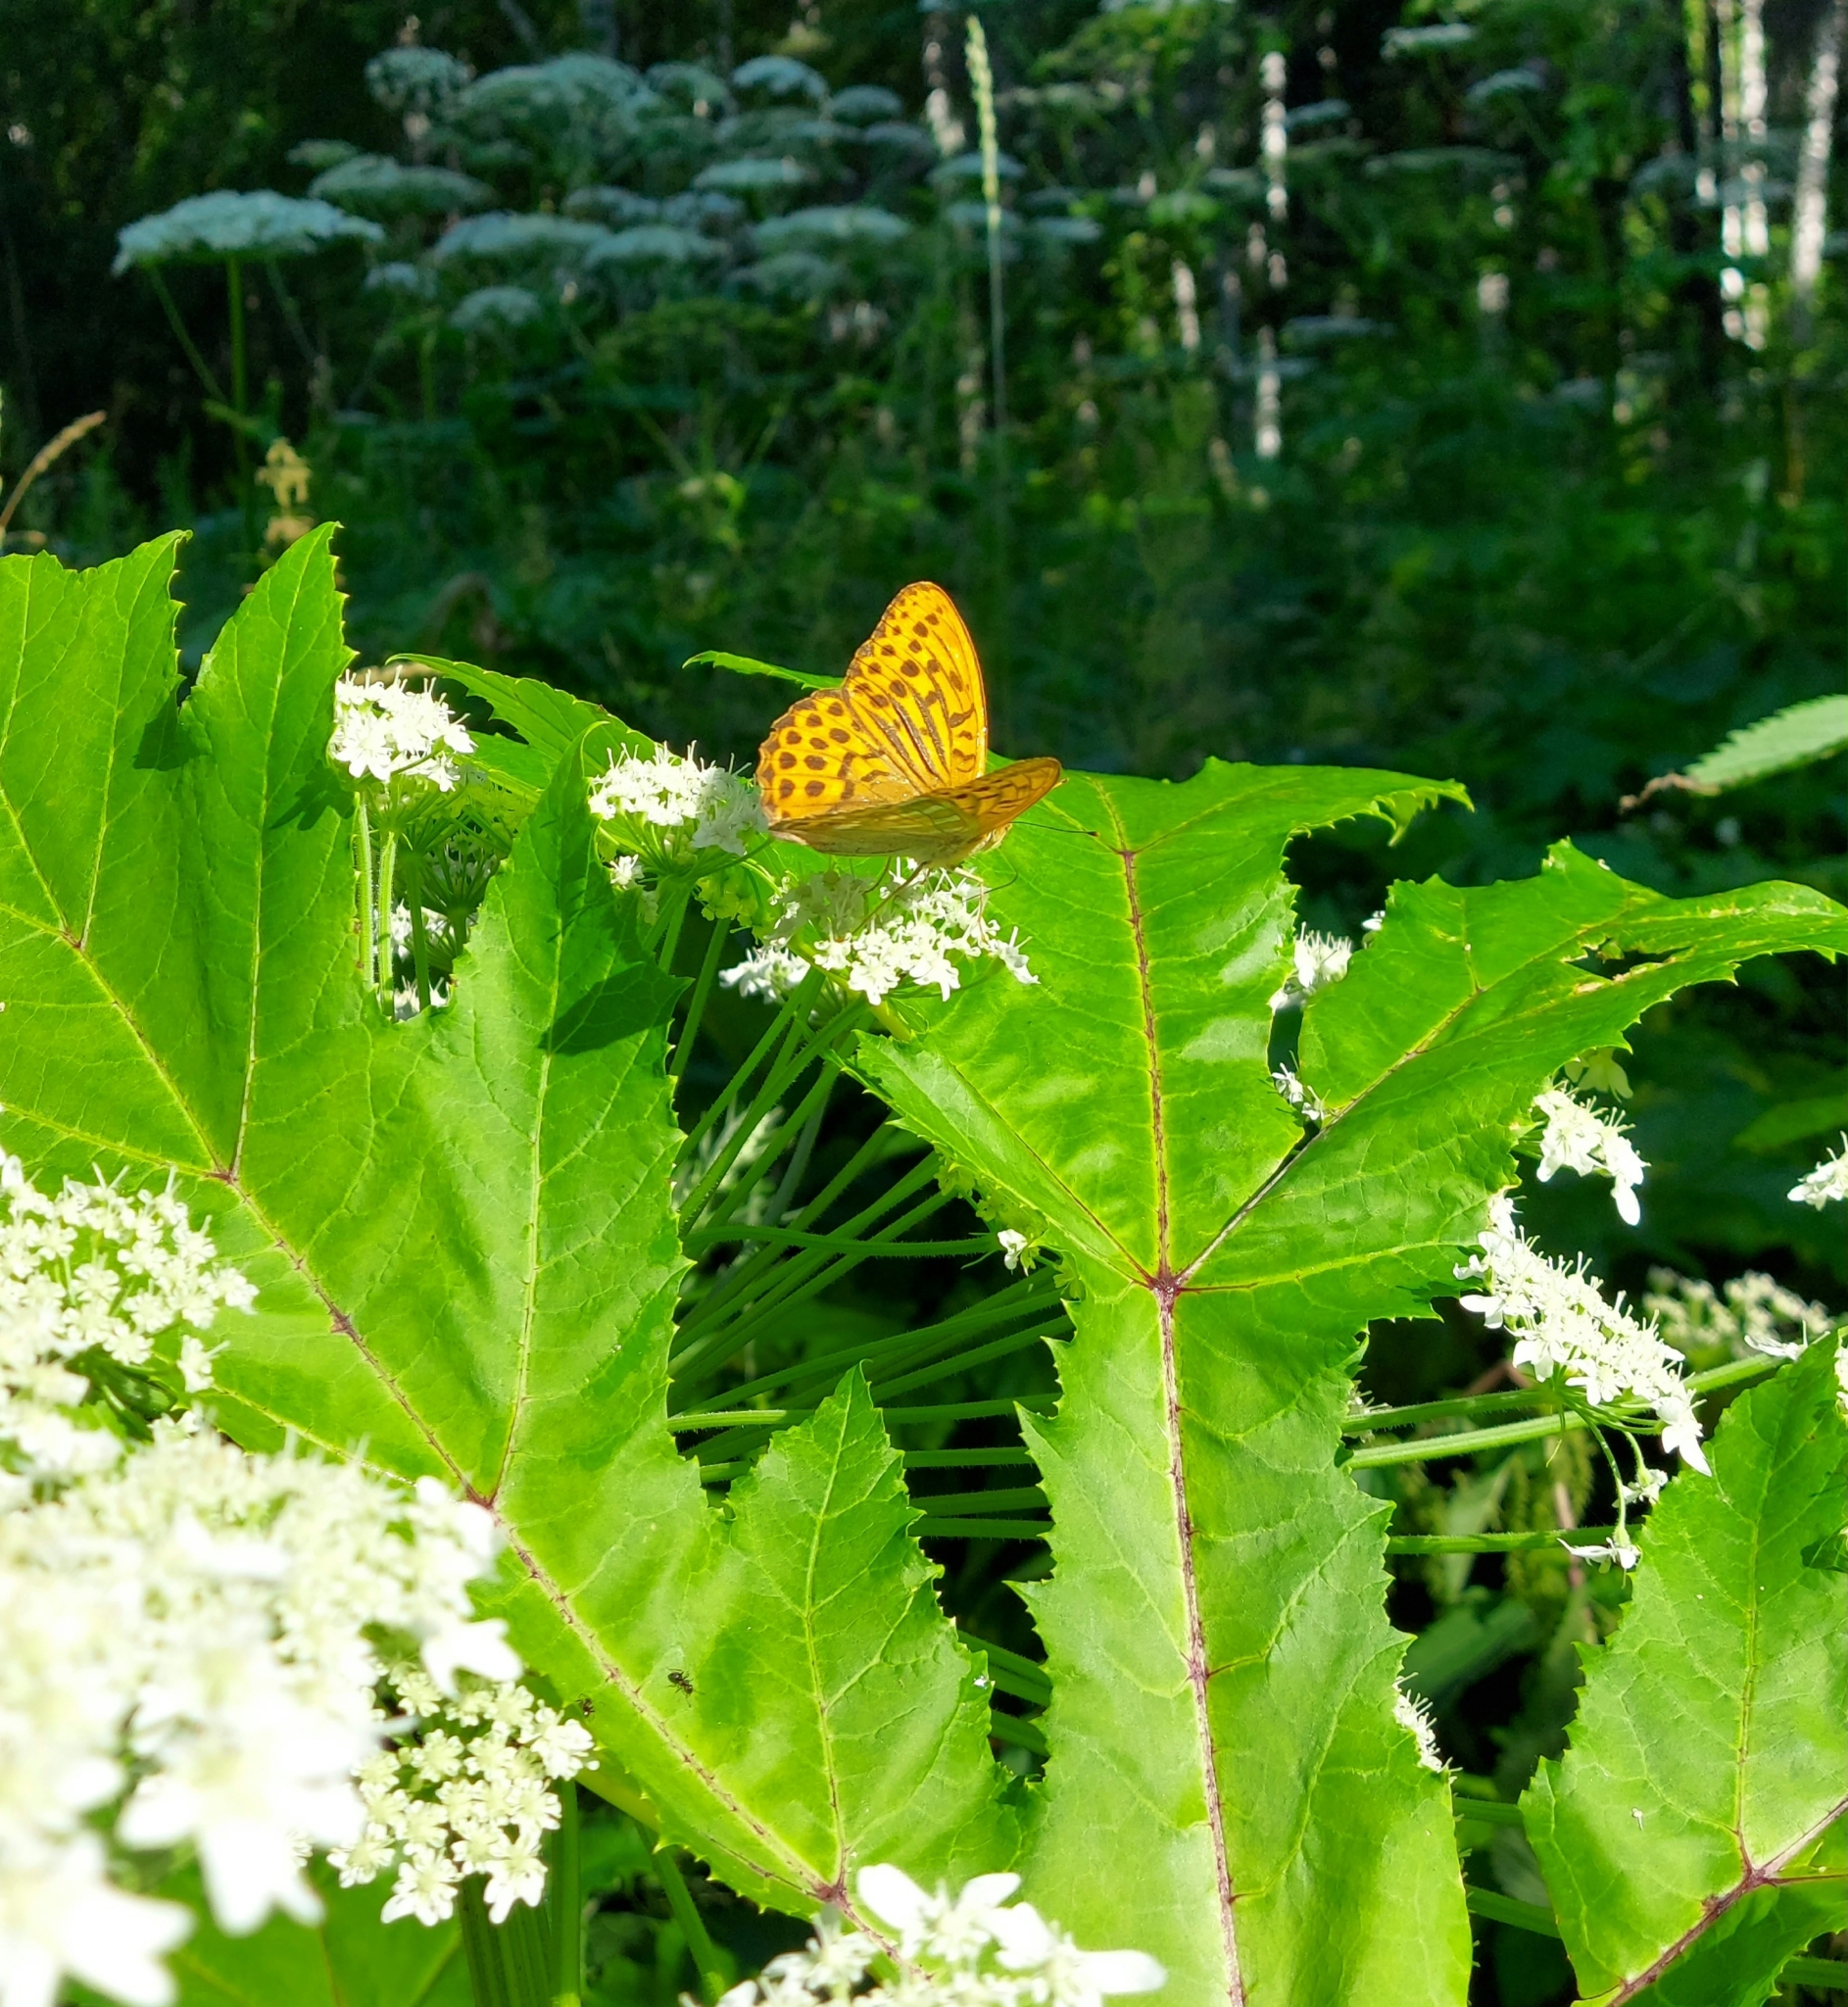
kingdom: Animalia
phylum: Arthropoda
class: Insecta
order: Lepidoptera
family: Nymphalidae
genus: Argynnis
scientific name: Argynnis paphia
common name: Silver-washed fritillary
